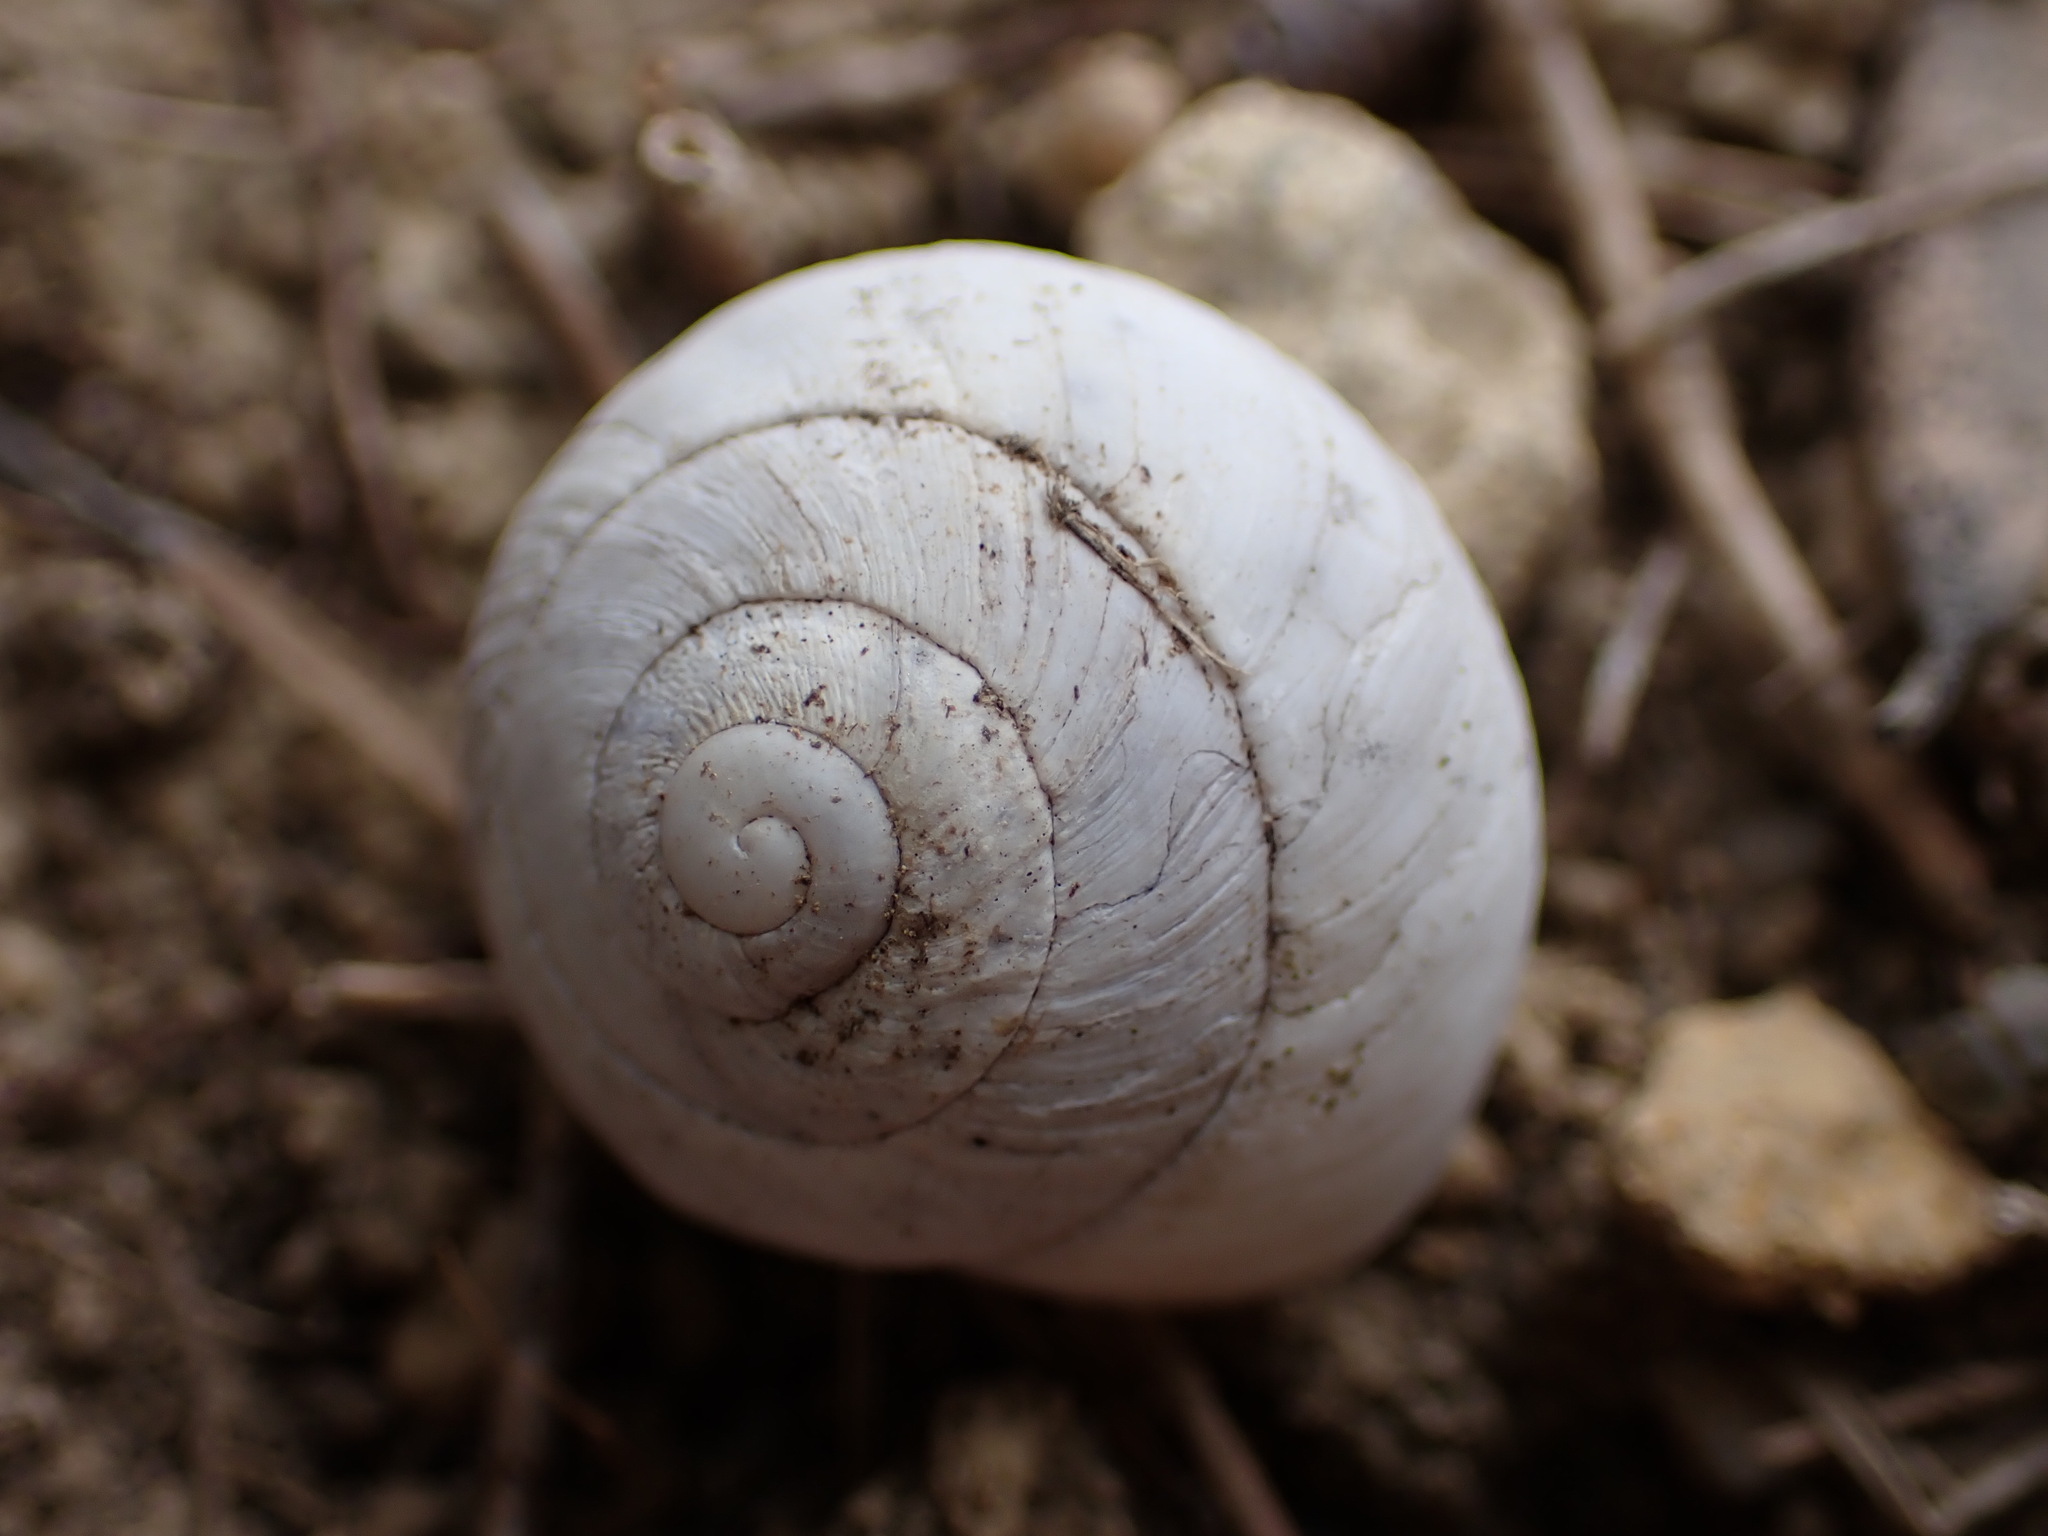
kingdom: Animalia
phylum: Mollusca
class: Gastropoda
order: Stylommatophora
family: Sphincterochilidae
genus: Sphincterochila
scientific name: Sphincterochila candidissima
